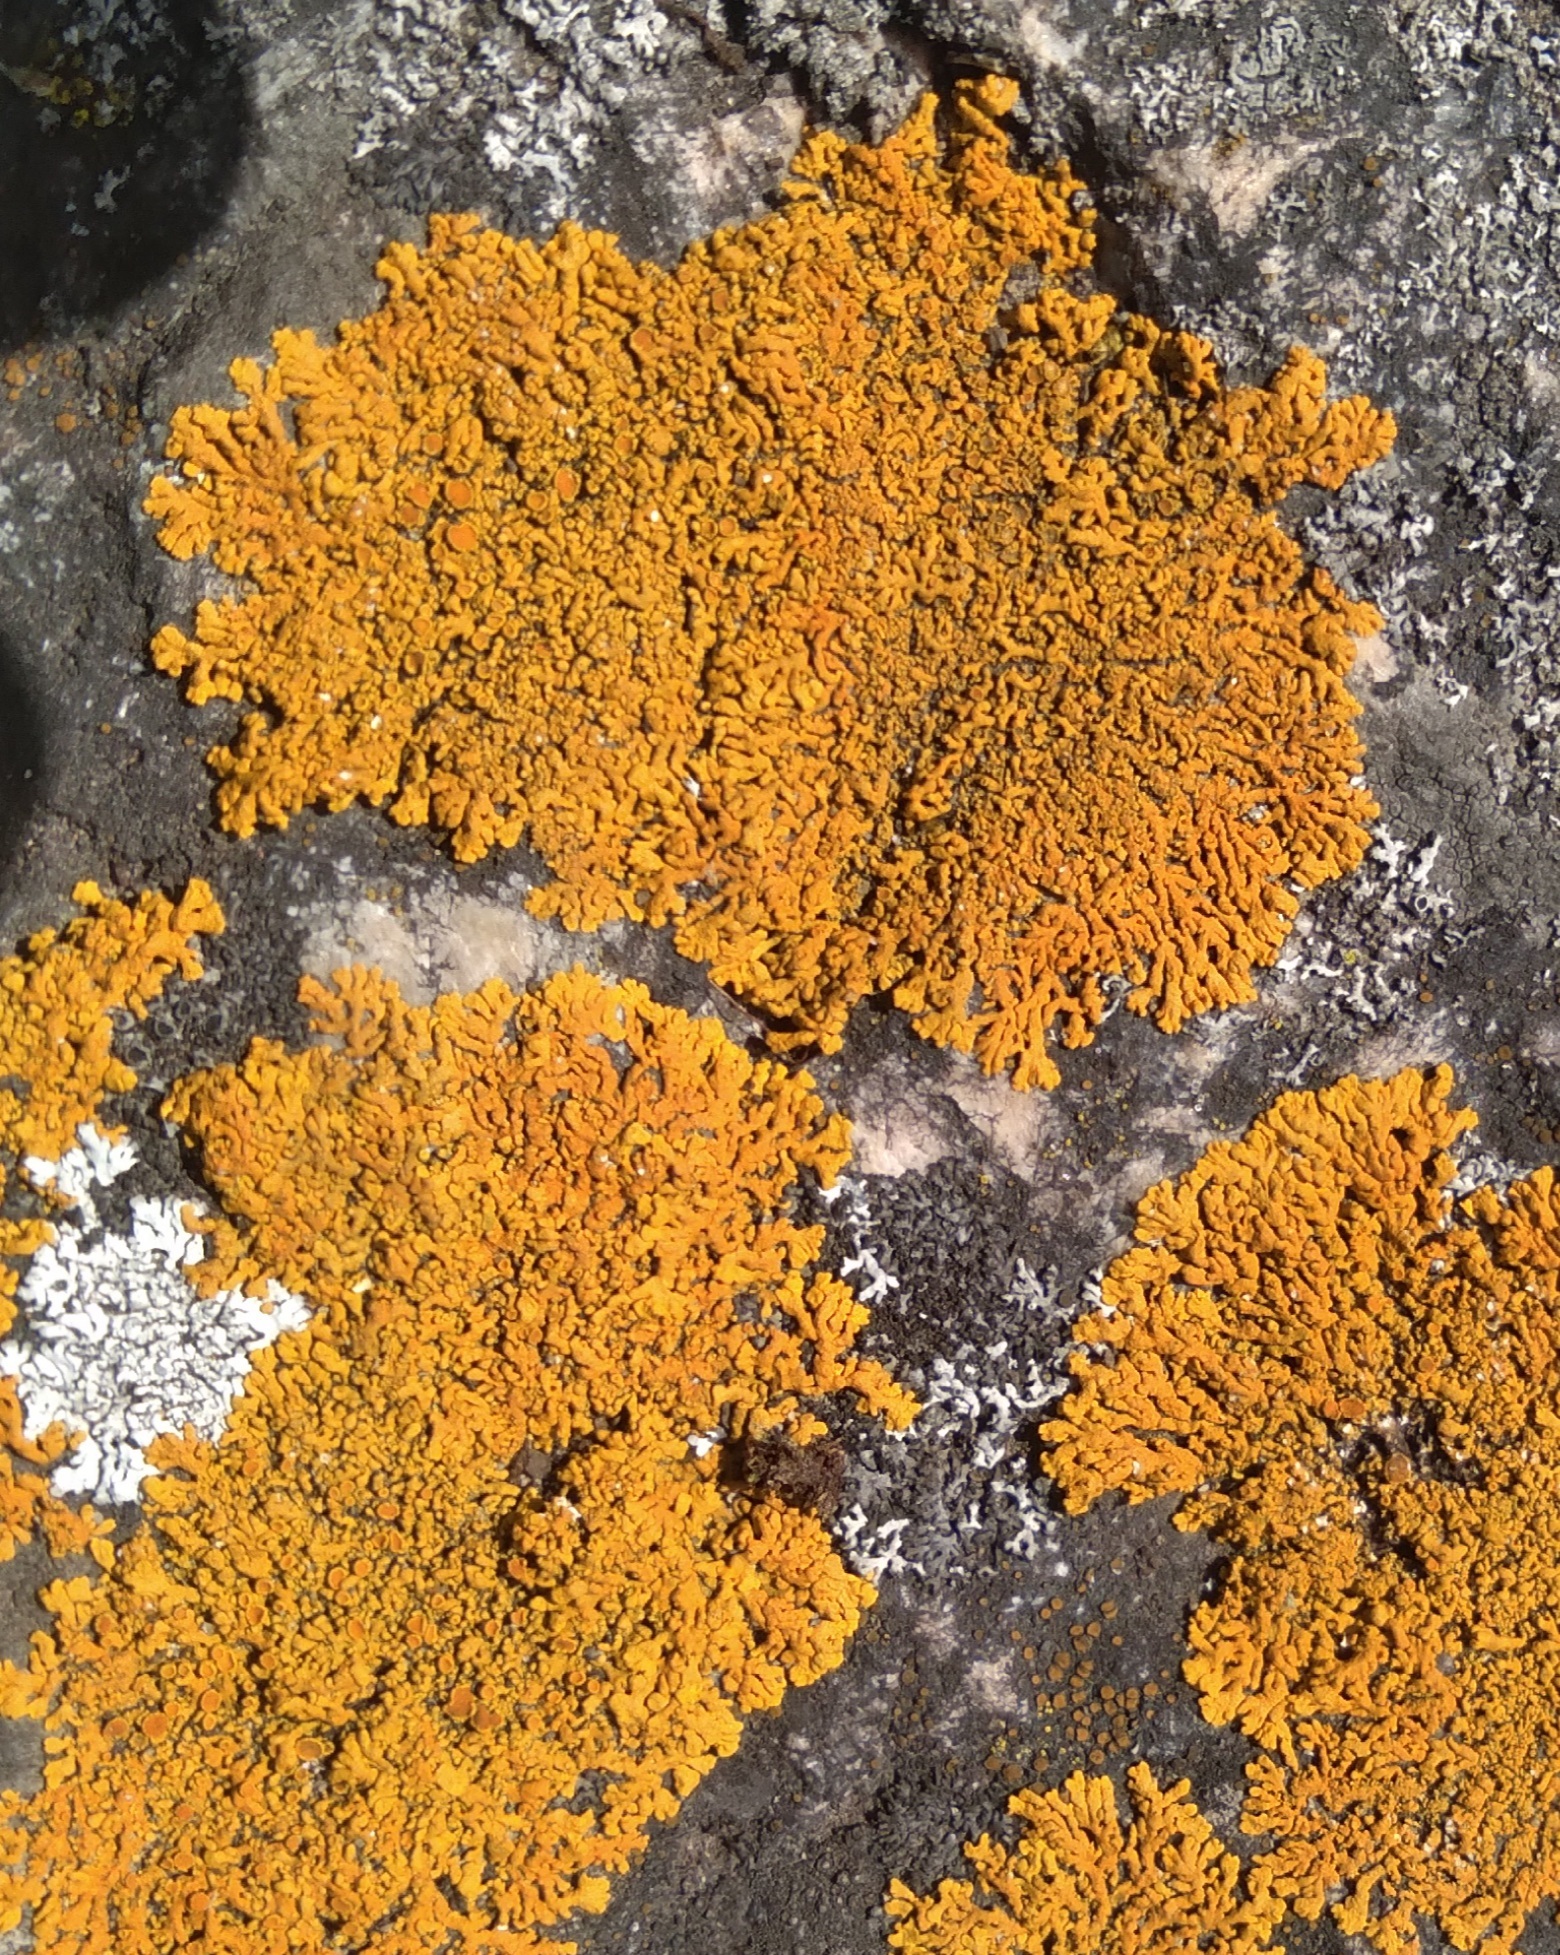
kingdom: Fungi
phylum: Ascomycota
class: Lecanoromycetes
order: Teloschistales
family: Teloschistaceae
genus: Xanthoria
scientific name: Xanthoria parietina
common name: Common orange lichen
